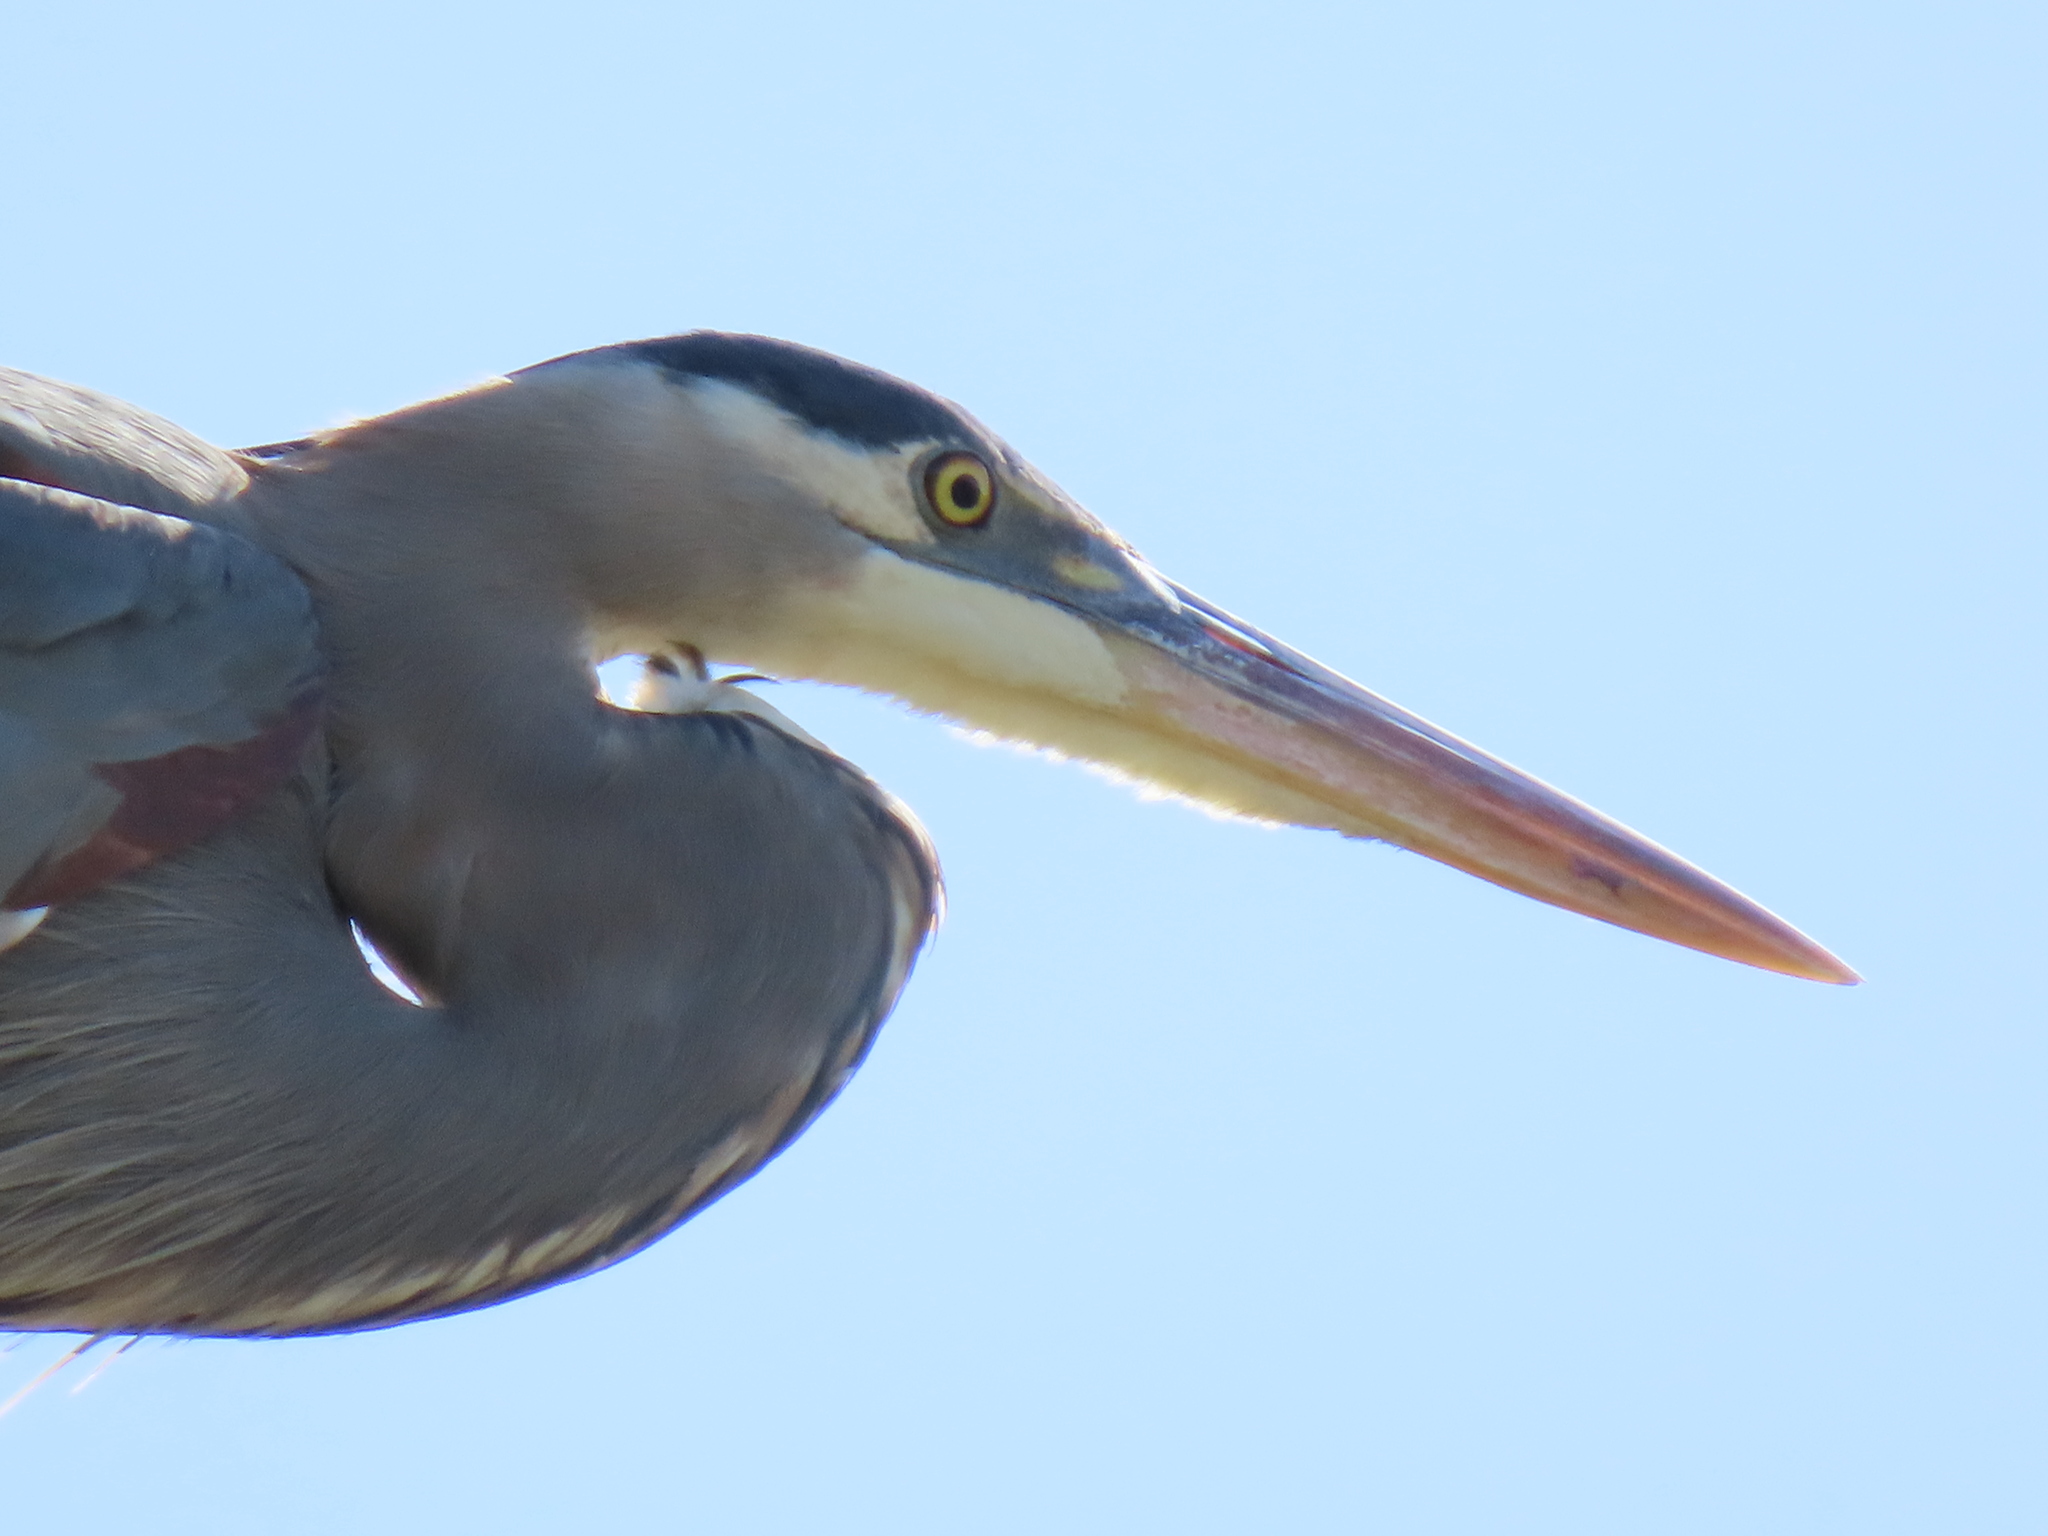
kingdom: Animalia
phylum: Chordata
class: Aves
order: Pelecaniformes
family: Ardeidae
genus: Ardea
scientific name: Ardea herodias
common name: Great blue heron
